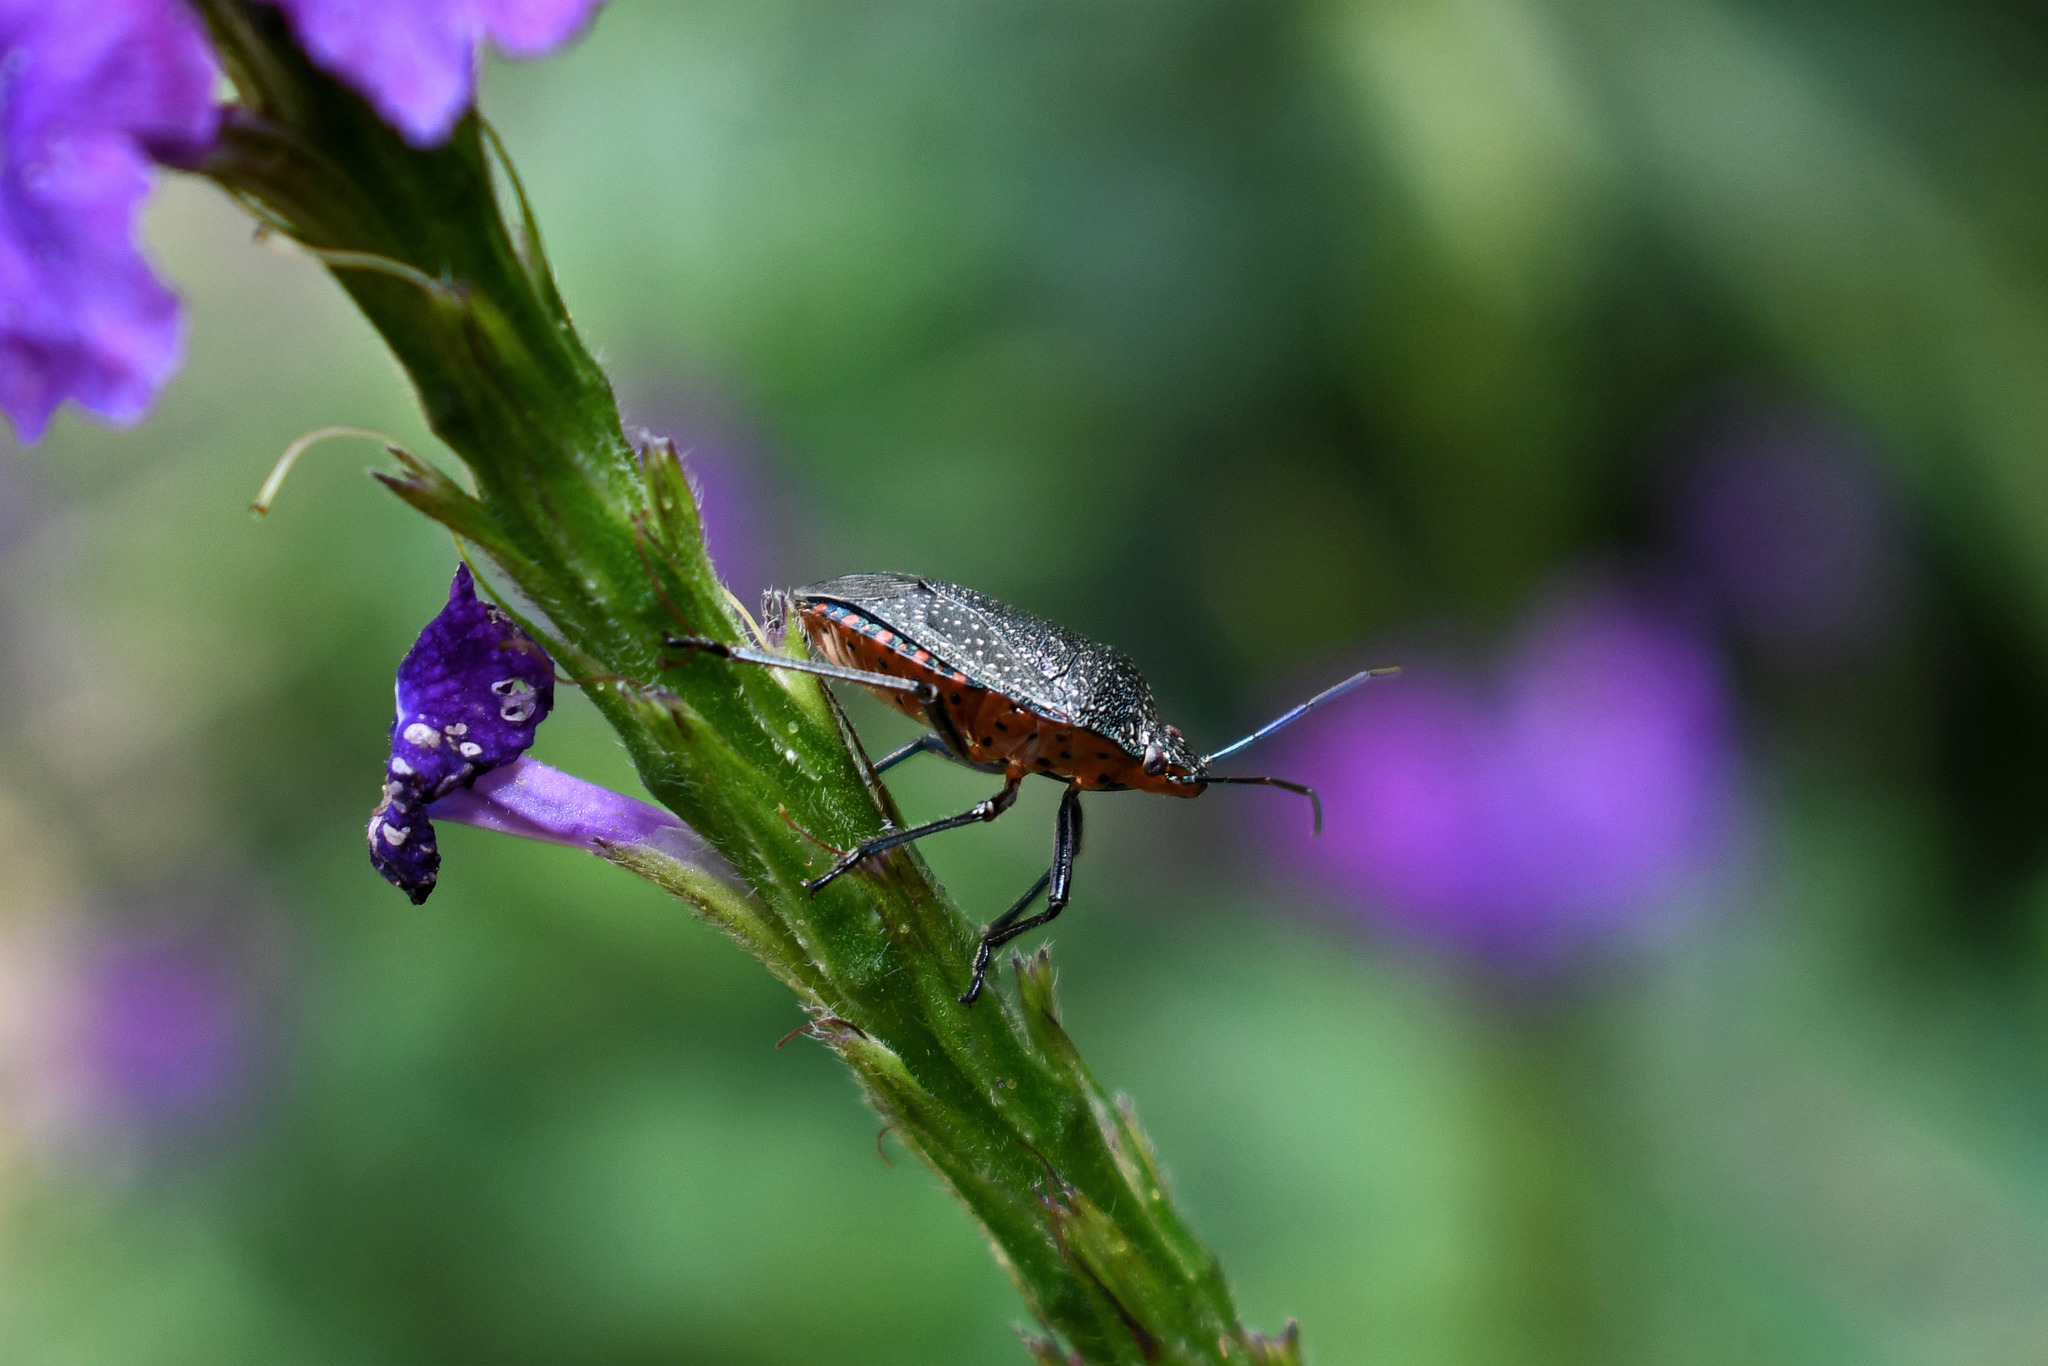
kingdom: Animalia
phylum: Arthropoda
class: Insecta
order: Hemiptera
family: Pentatomidae
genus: Pellaea
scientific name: Pellaea stictica
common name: Stink bug
